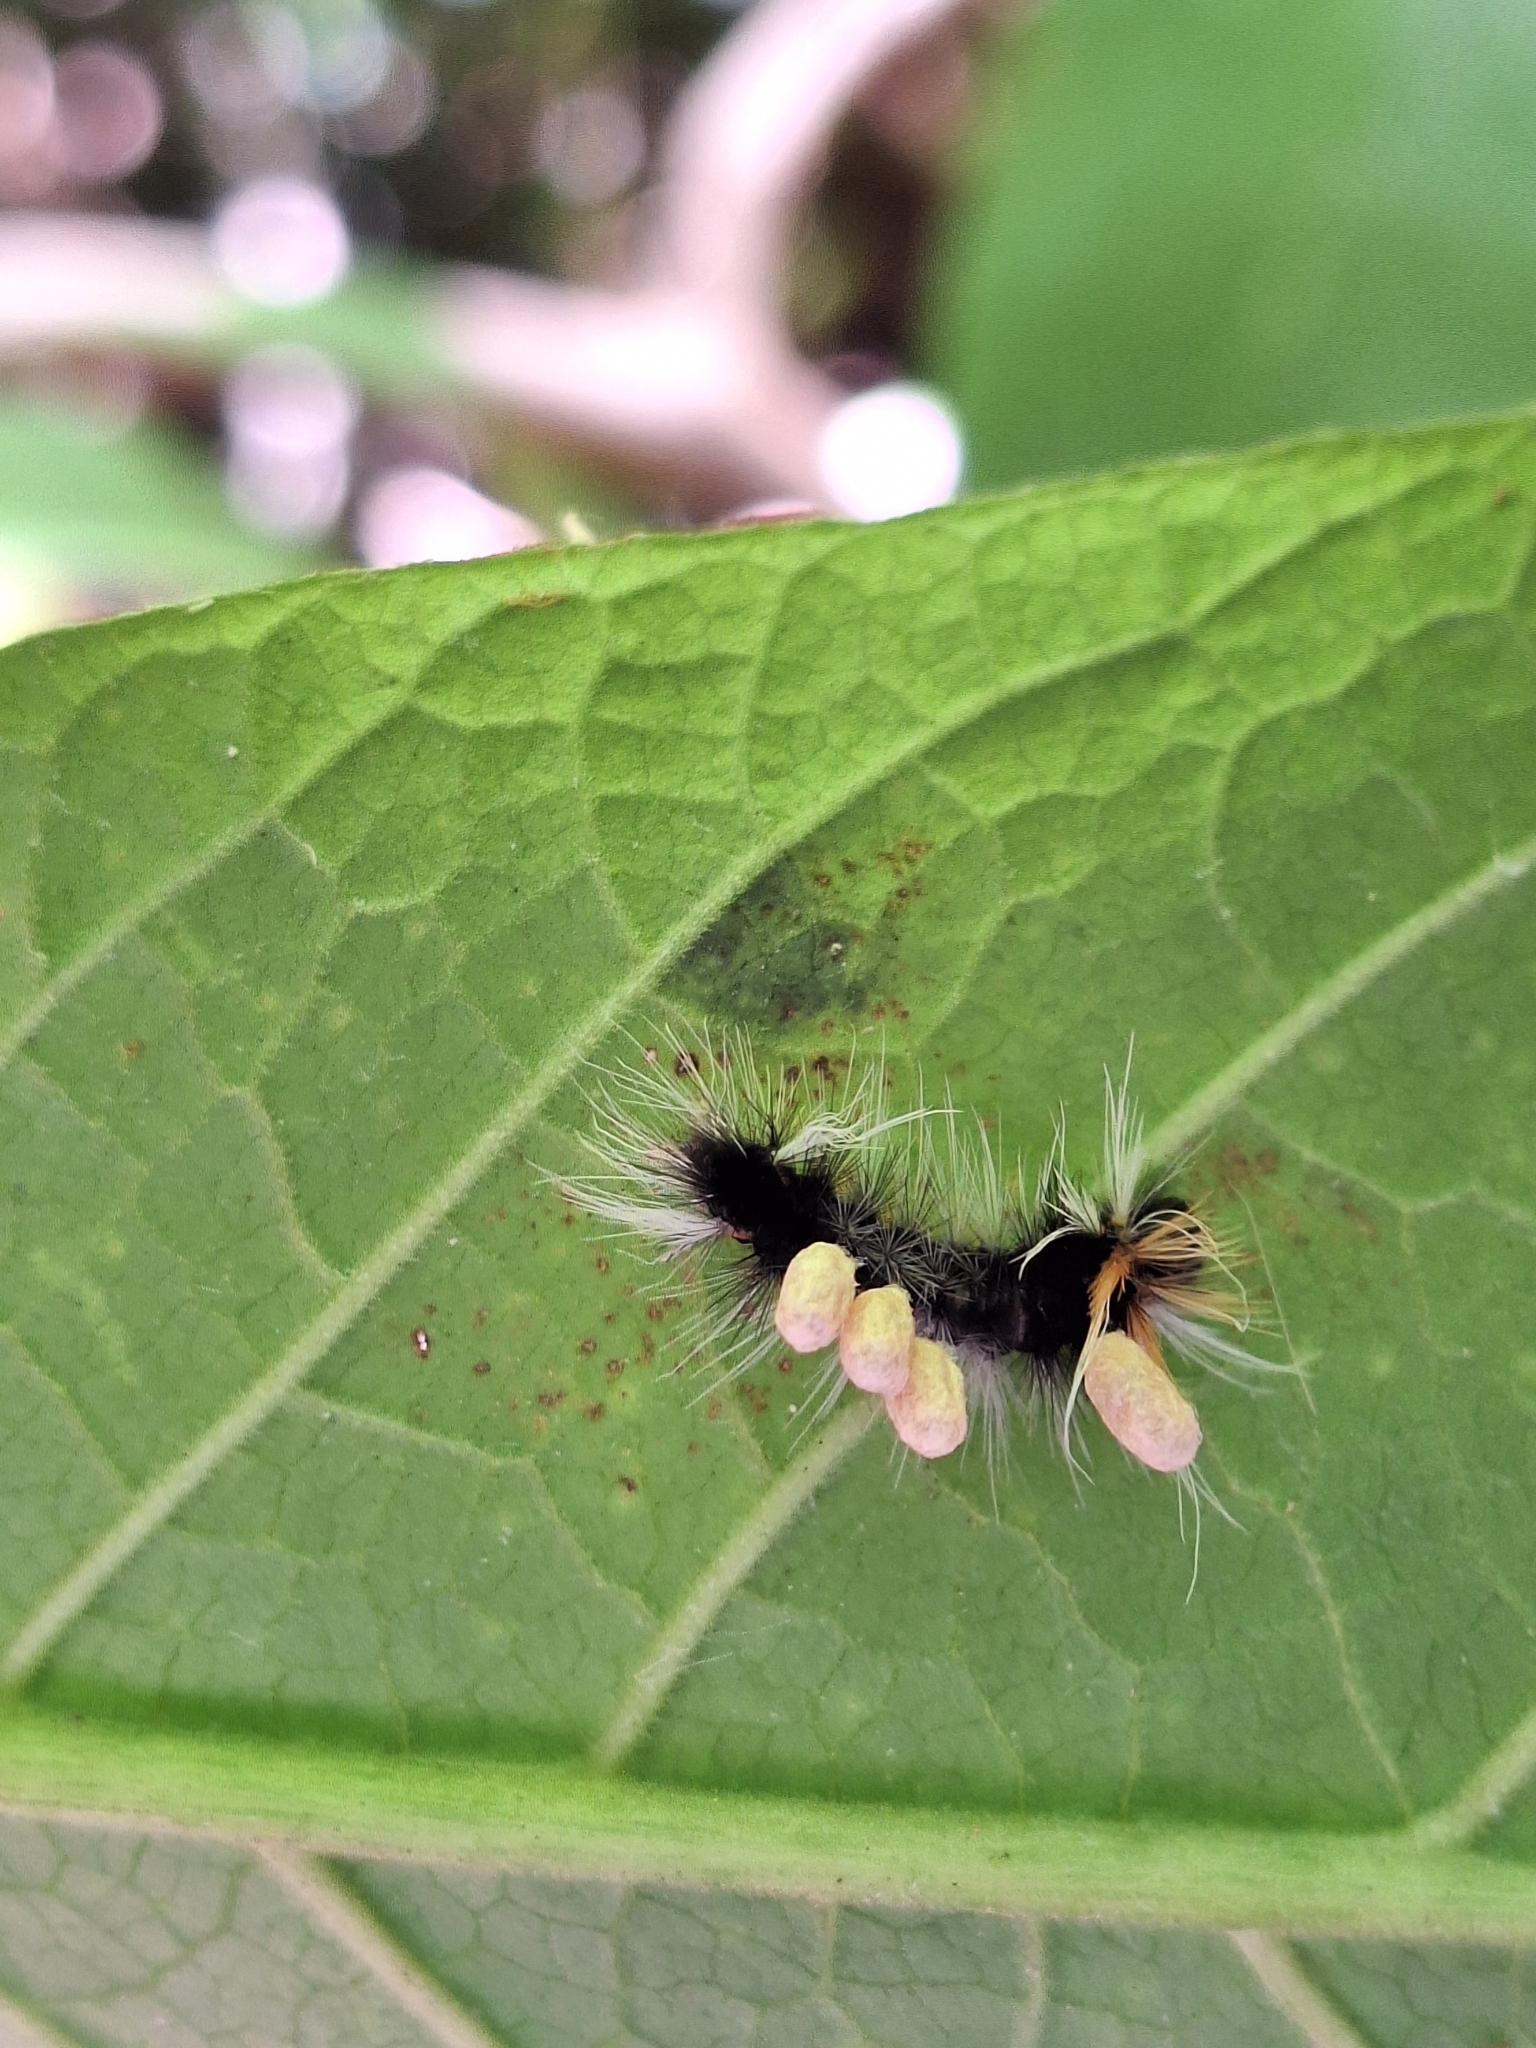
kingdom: Animalia
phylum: Arthropoda
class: Insecta
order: Lepidoptera
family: Erebidae
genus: Halysidota
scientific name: Halysidota ruscheweyhi
